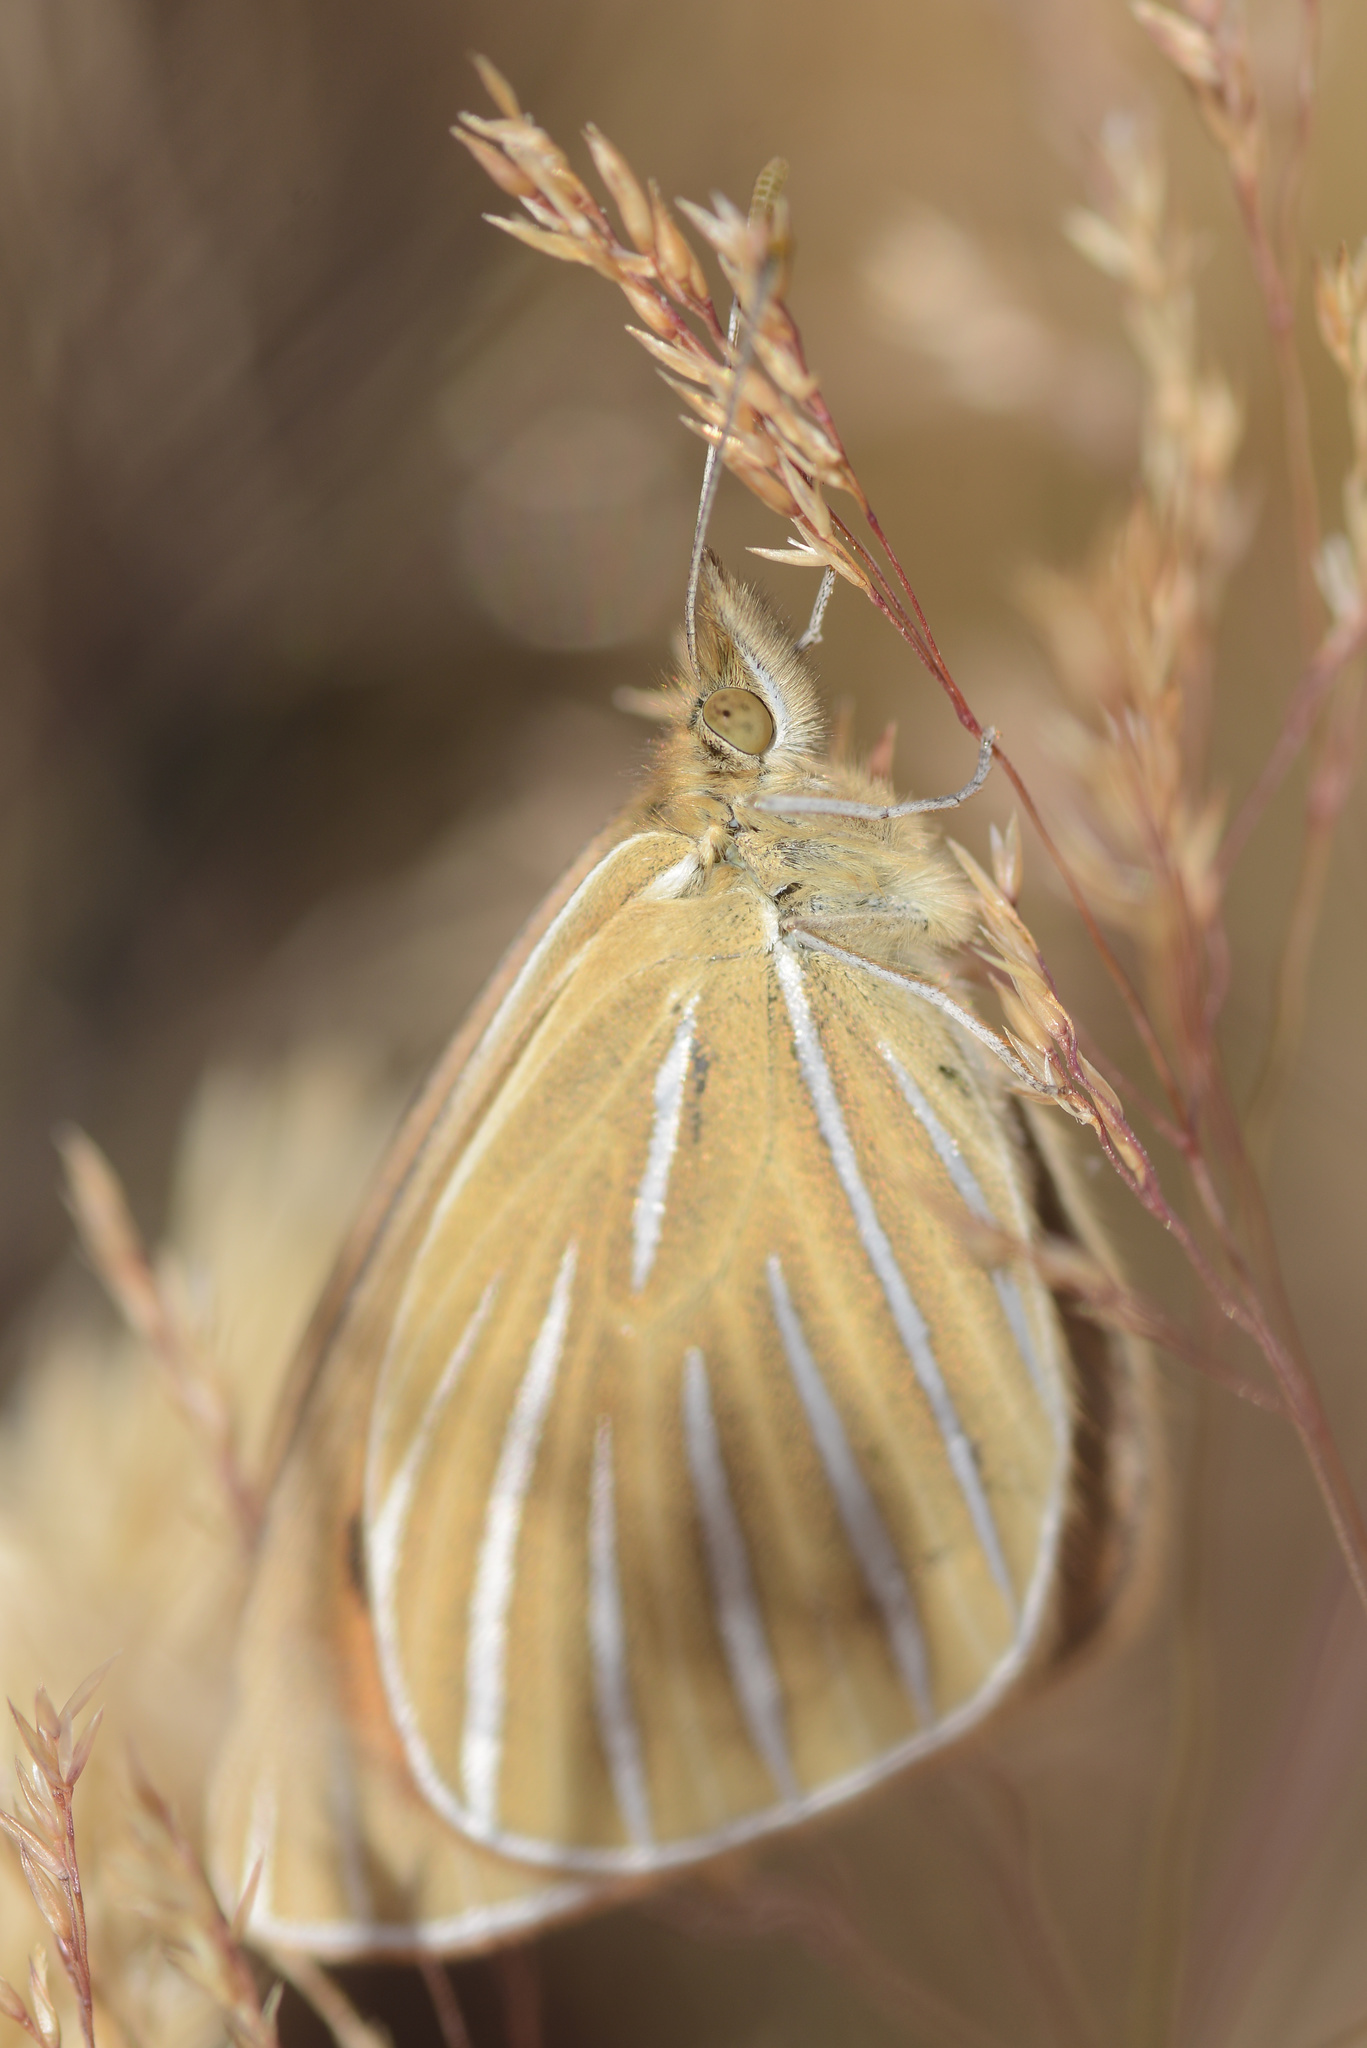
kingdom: Animalia
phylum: Arthropoda
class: Insecta
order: Lepidoptera
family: Nymphalidae
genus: Argyrophenga
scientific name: Argyrophenga antipodum
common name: Common tussock butterfly
